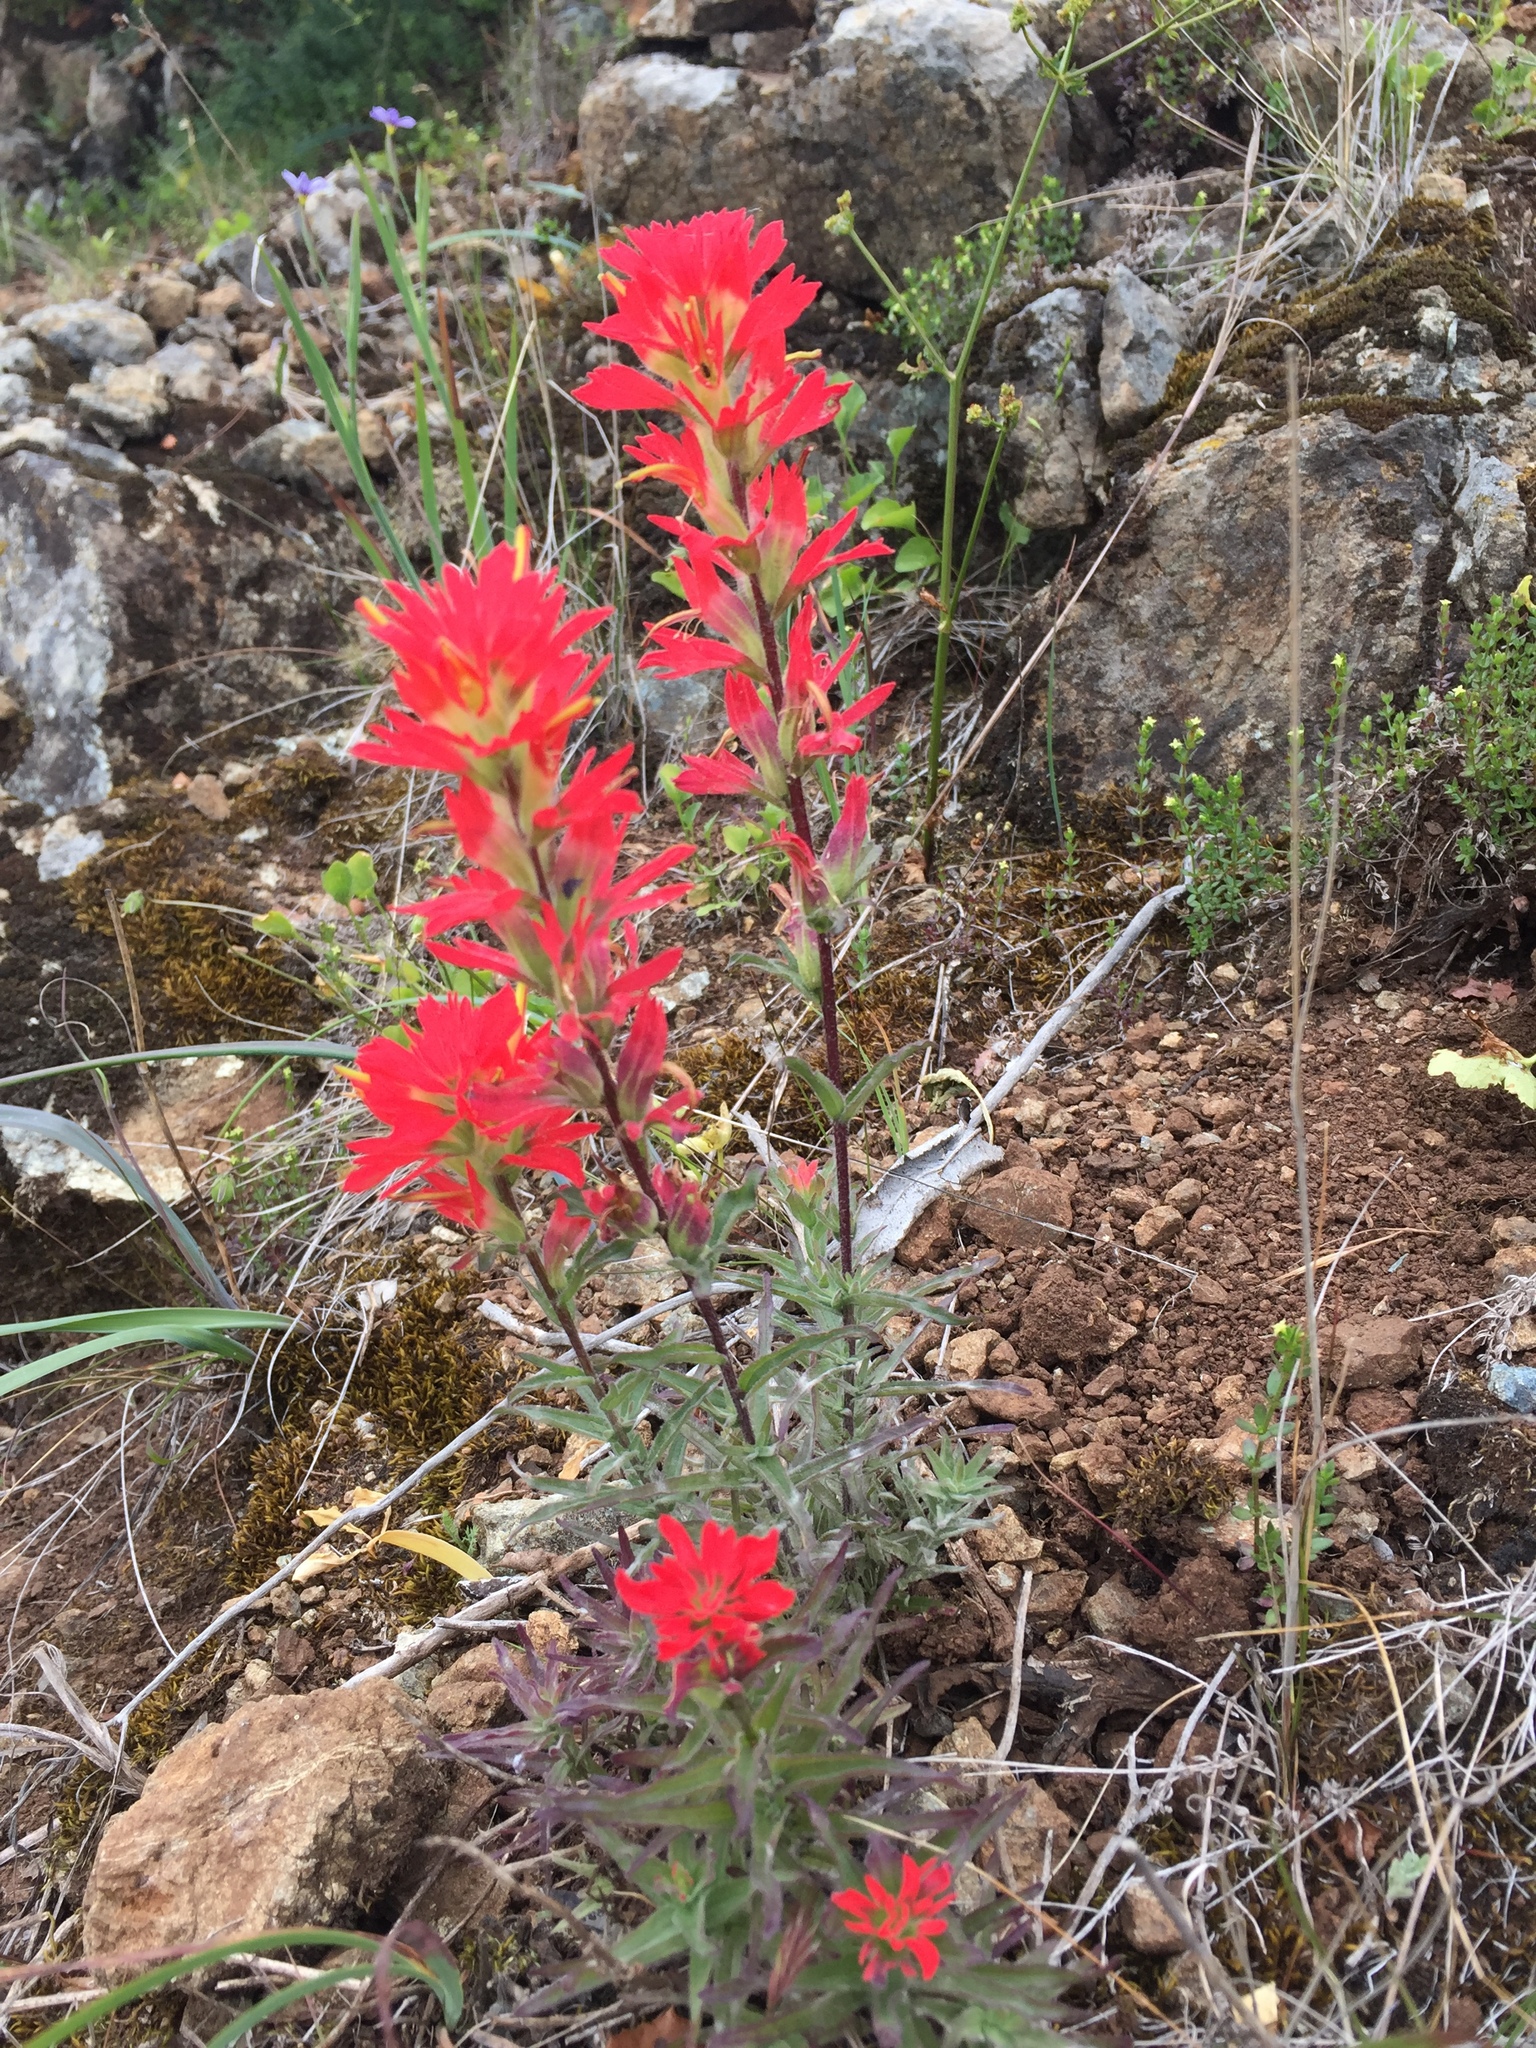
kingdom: Plantae
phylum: Tracheophyta
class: Magnoliopsida
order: Lamiales
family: Orobanchaceae
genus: Castilleja
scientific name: Castilleja affinis
